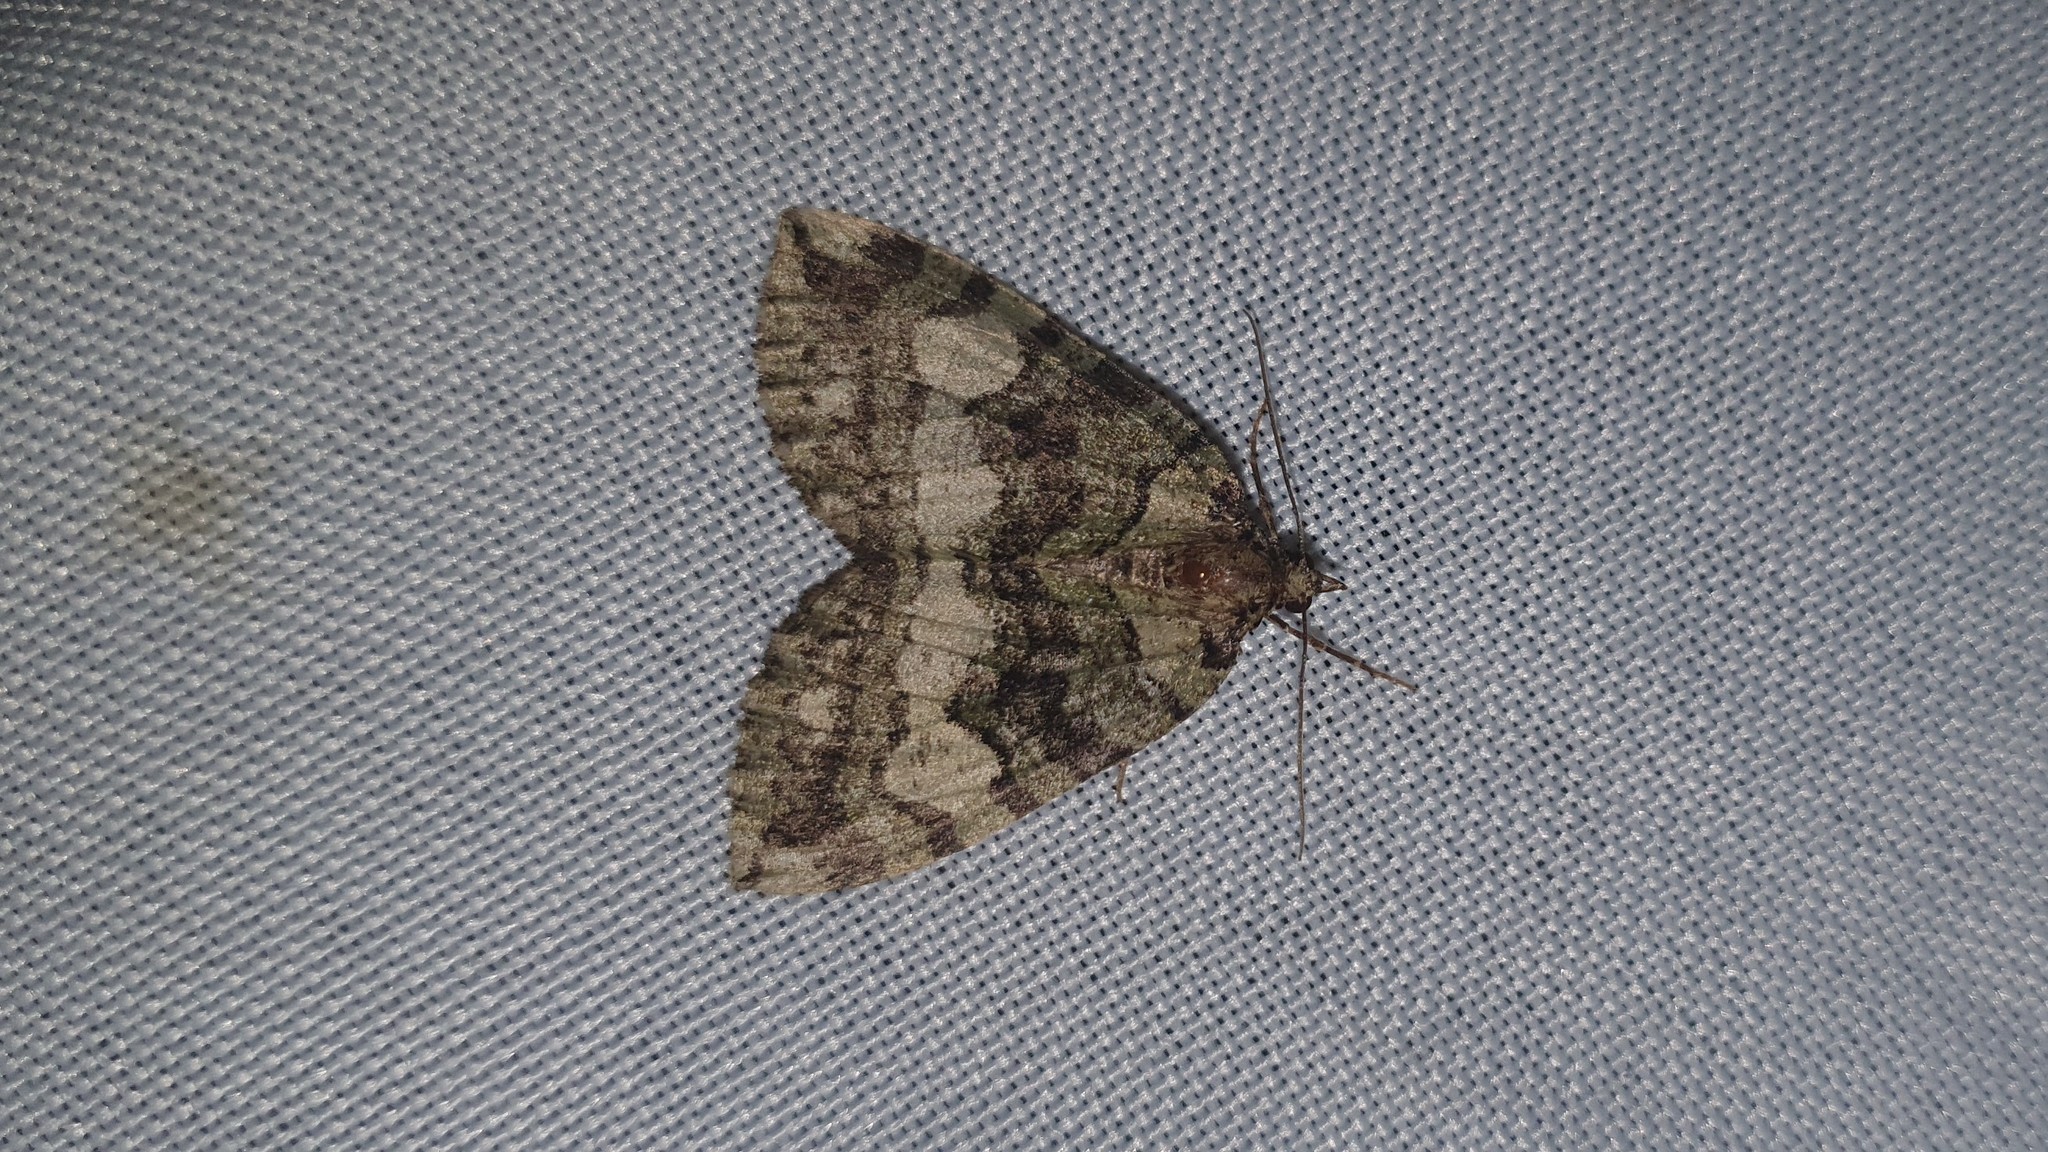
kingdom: Animalia
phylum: Arthropoda
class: Insecta
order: Lepidoptera
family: Geometridae
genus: Hydriomena
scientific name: Hydriomena furcata
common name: July highflyer
